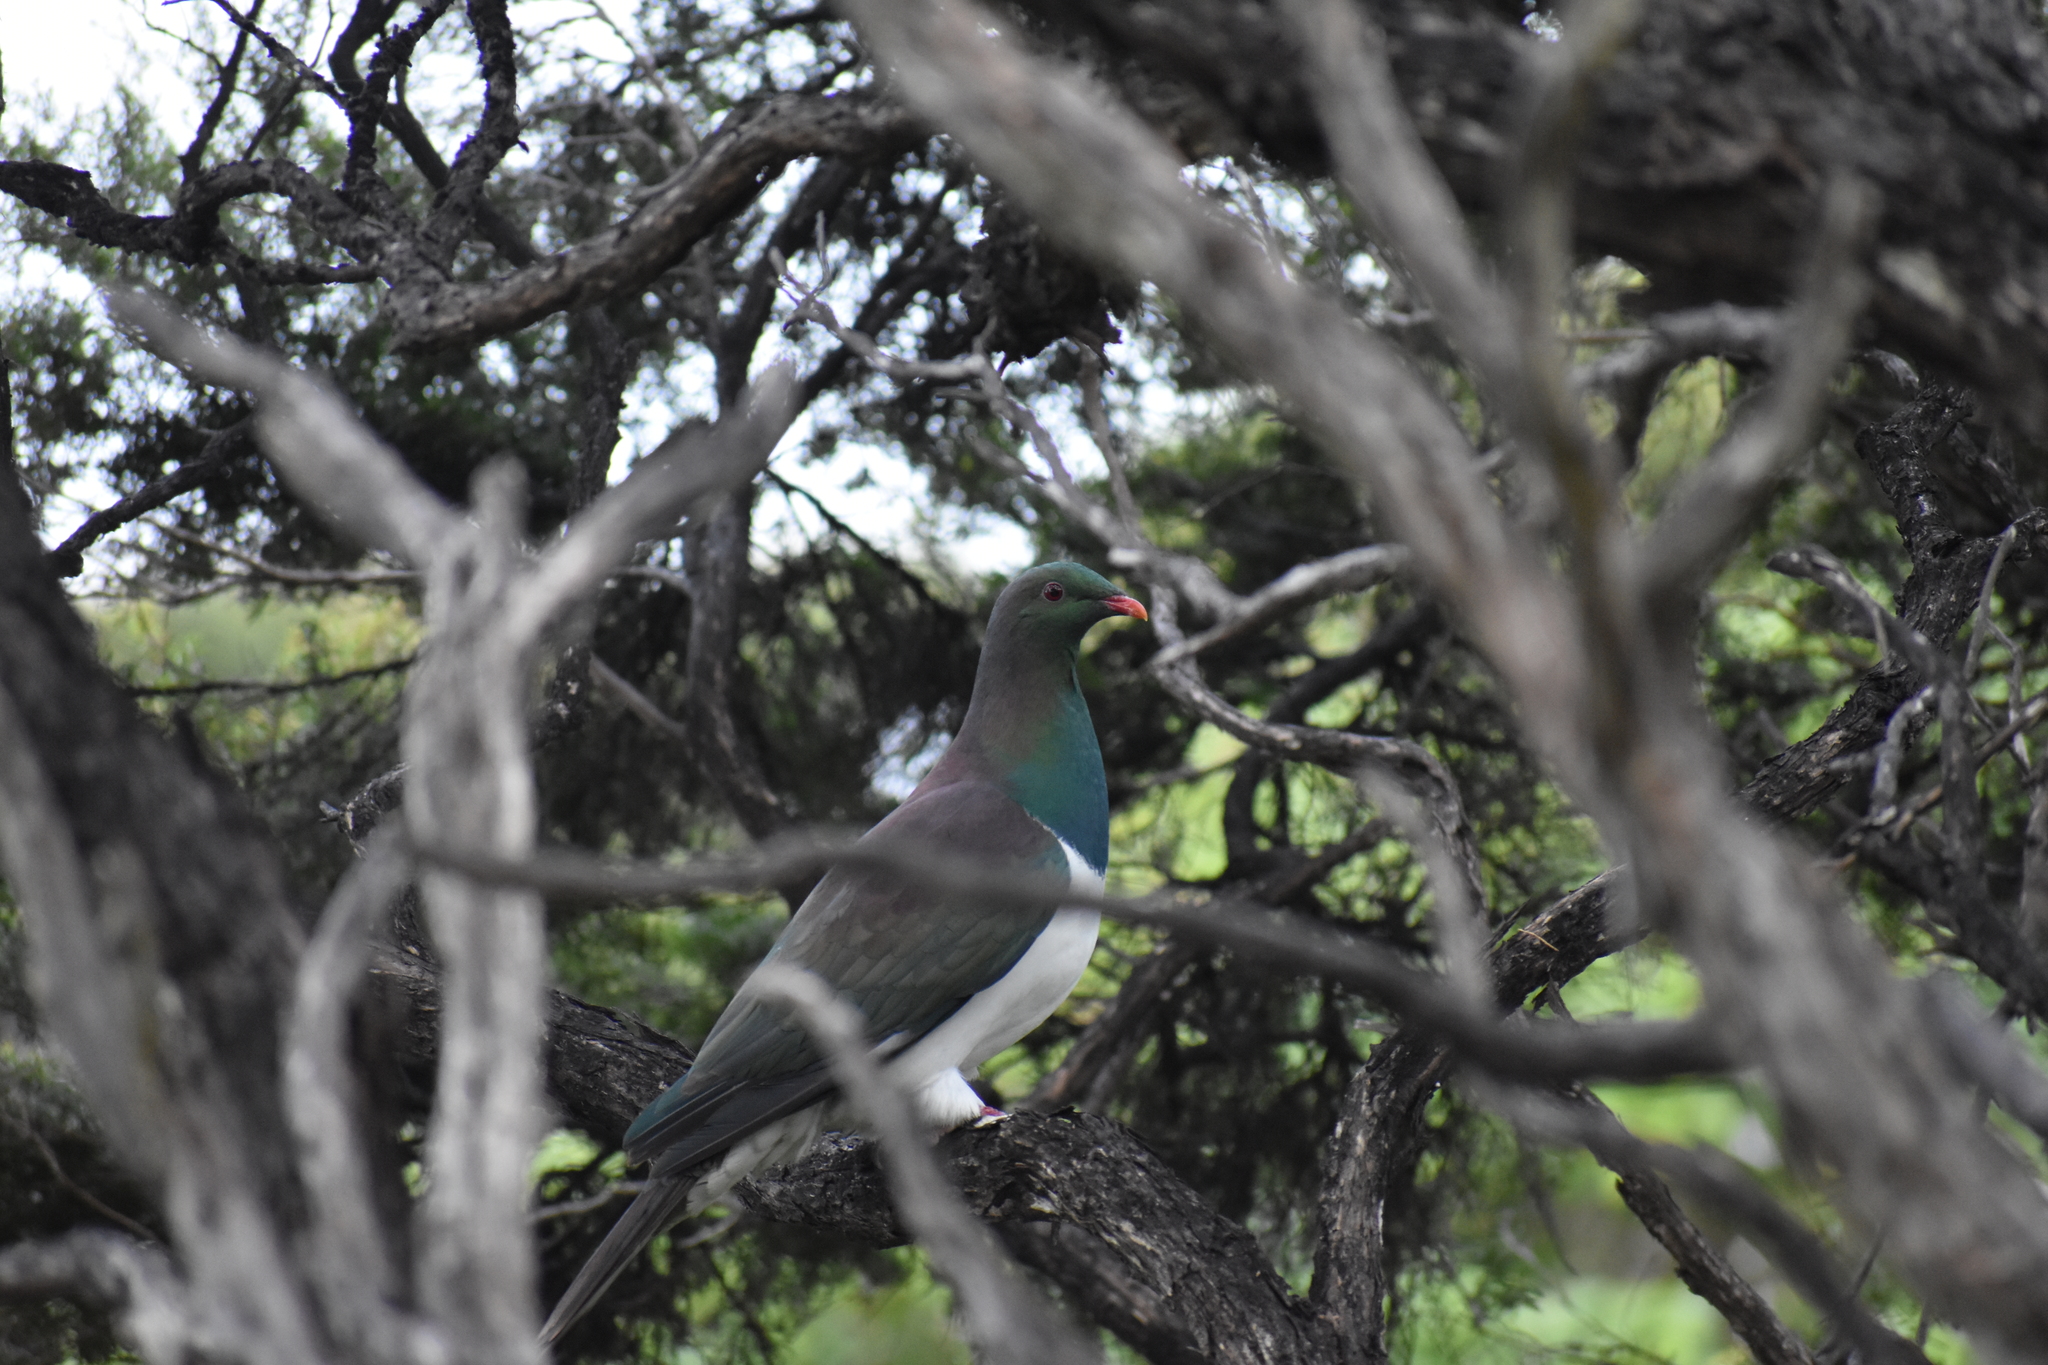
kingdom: Animalia
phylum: Chordata
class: Aves
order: Columbiformes
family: Columbidae
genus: Hemiphaga
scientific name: Hemiphaga novaeseelandiae
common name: New zealand pigeon
